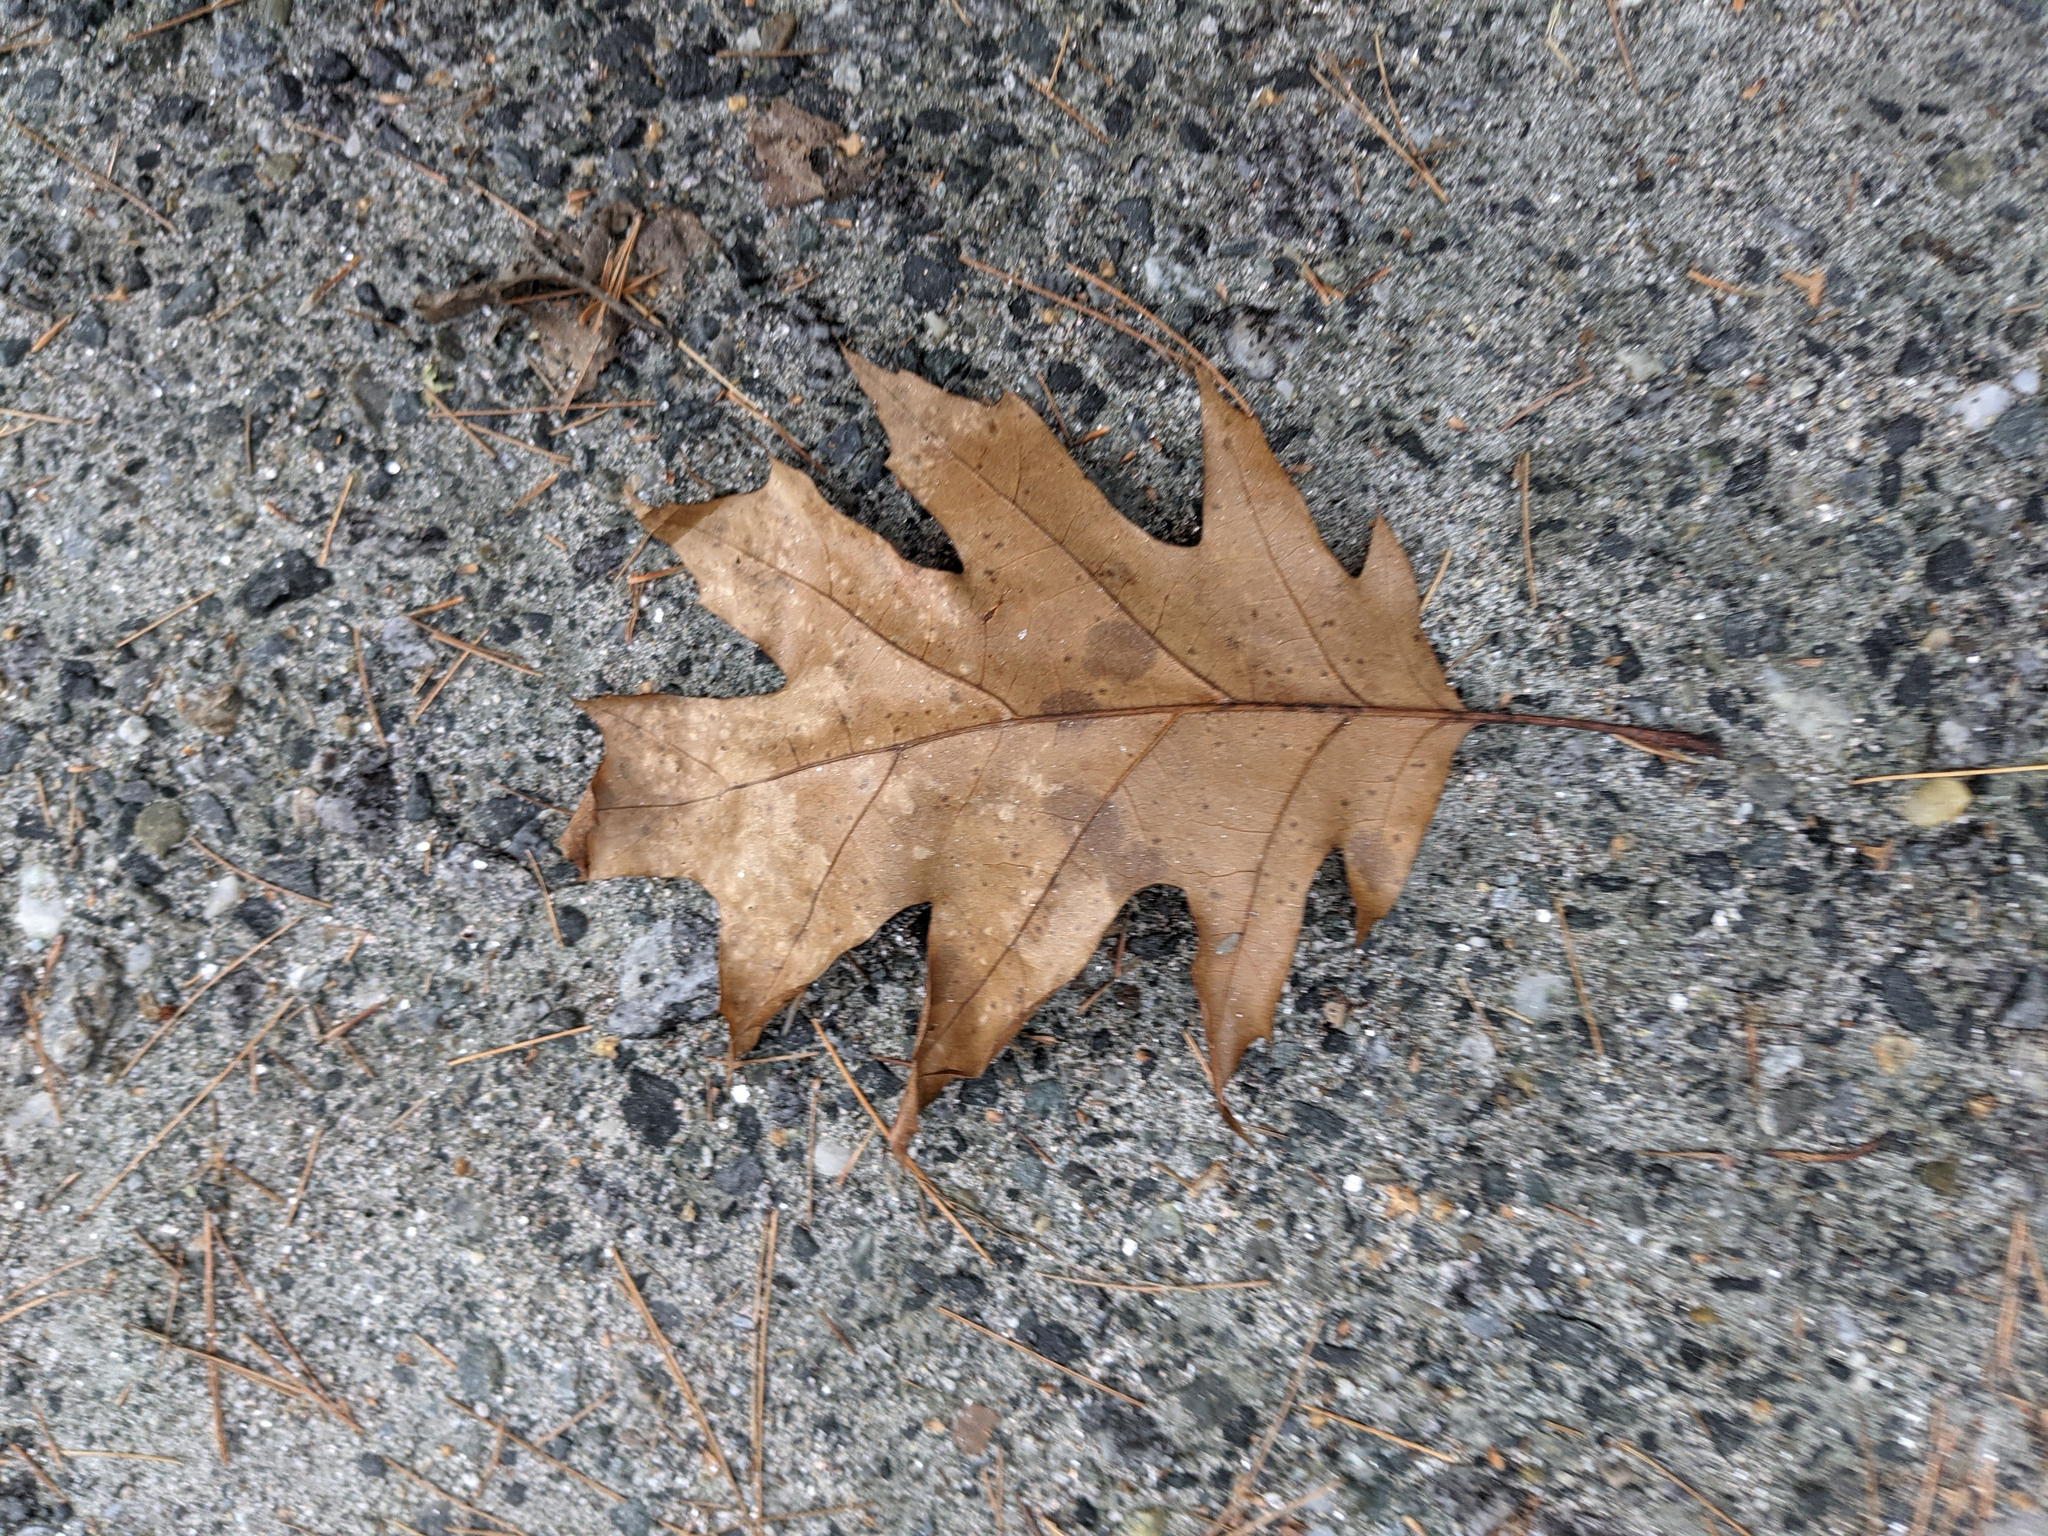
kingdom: Plantae
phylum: Tracheophyta
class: Magnoliopsida
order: Fagales
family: Fagaceae
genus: Quercus
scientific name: Quercus rubra
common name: Red oak
